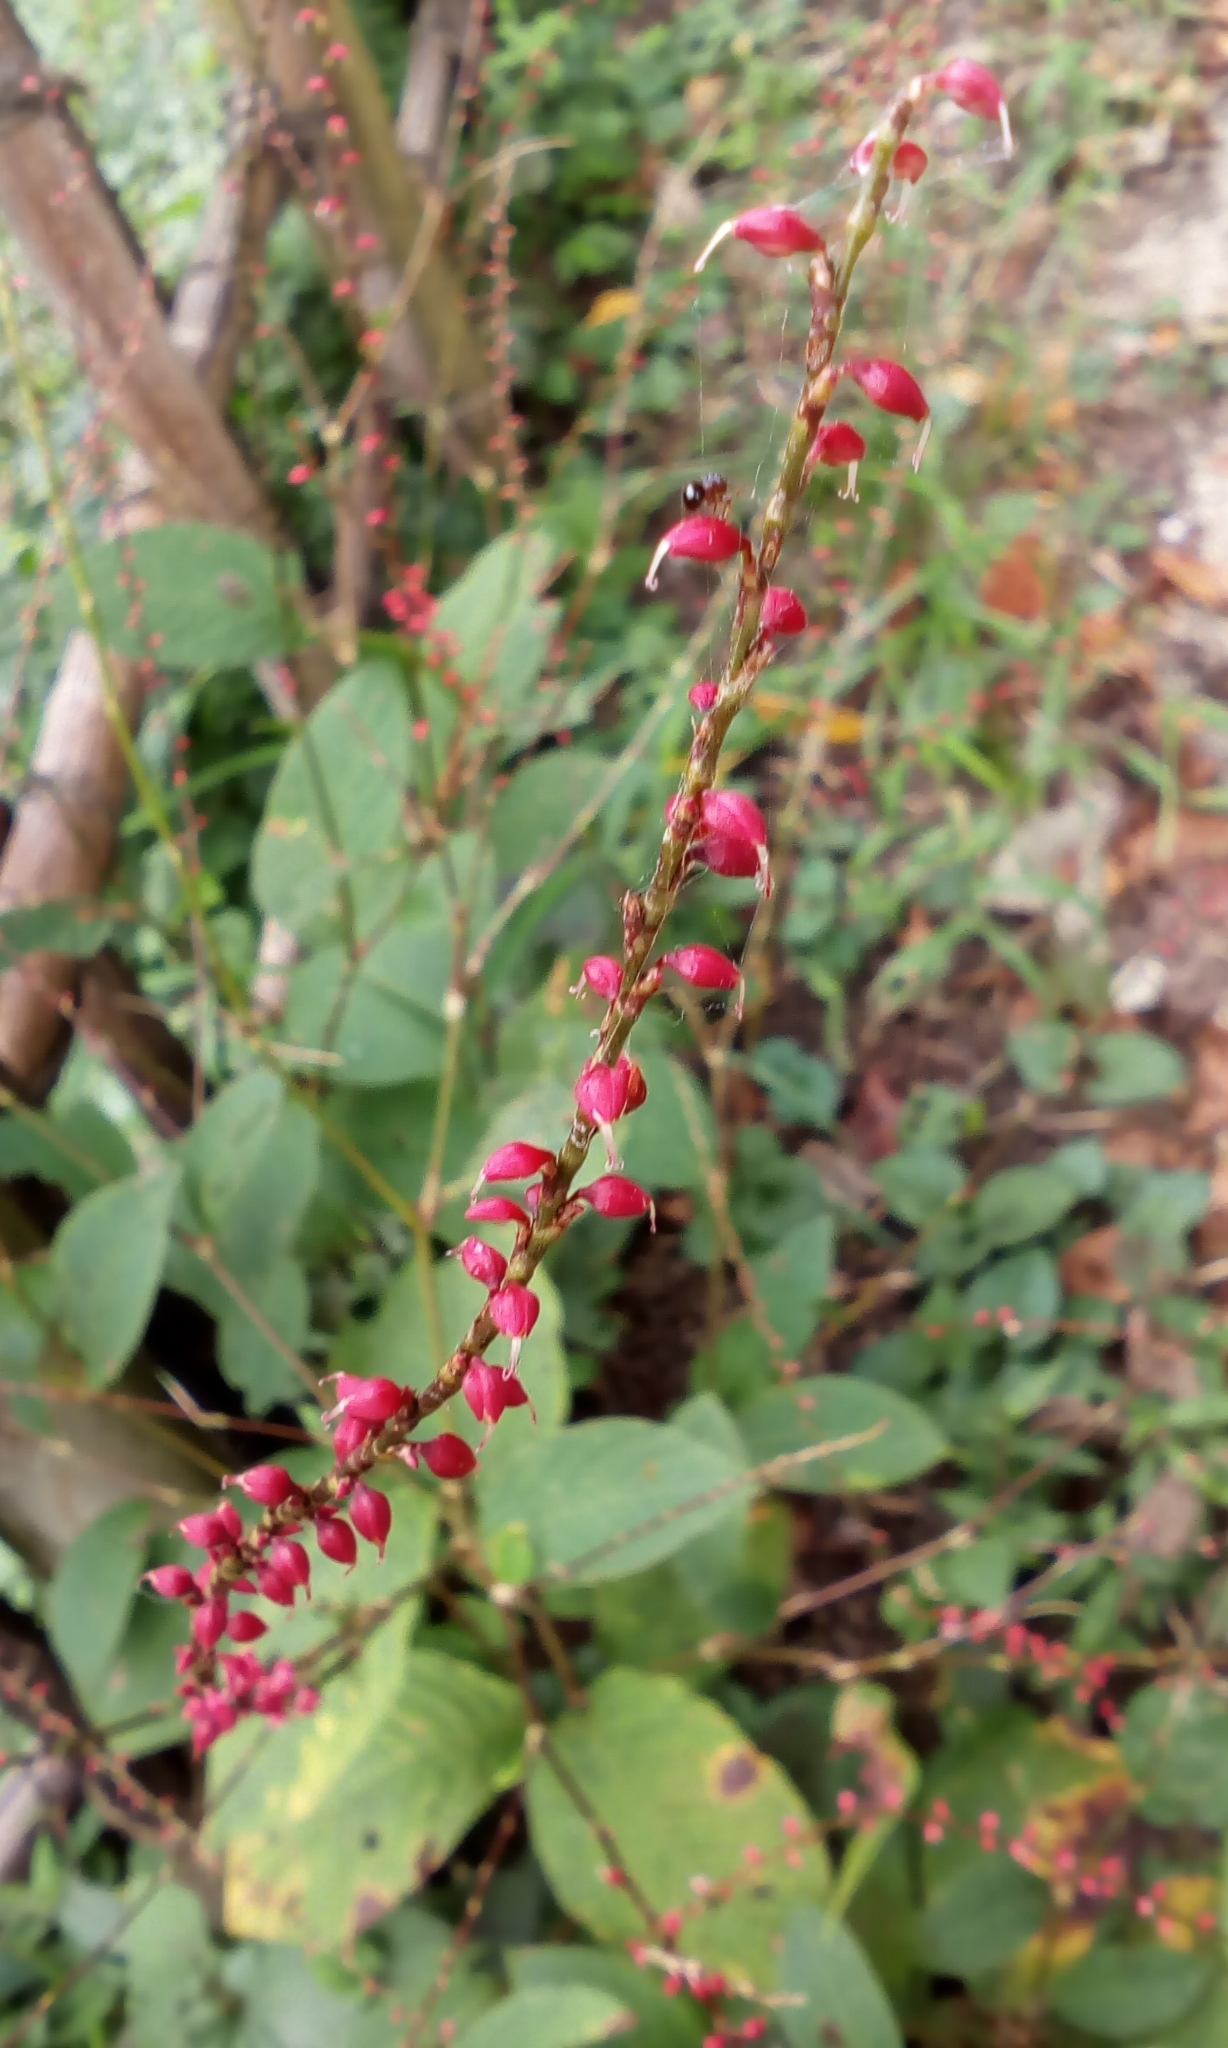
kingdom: Plantae
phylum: Tracheophyta
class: Magnoliopsida
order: Caryophyllales
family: Polygonaceae
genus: Persicaria
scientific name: Persicaria filiformis
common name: Asian jumpseed
